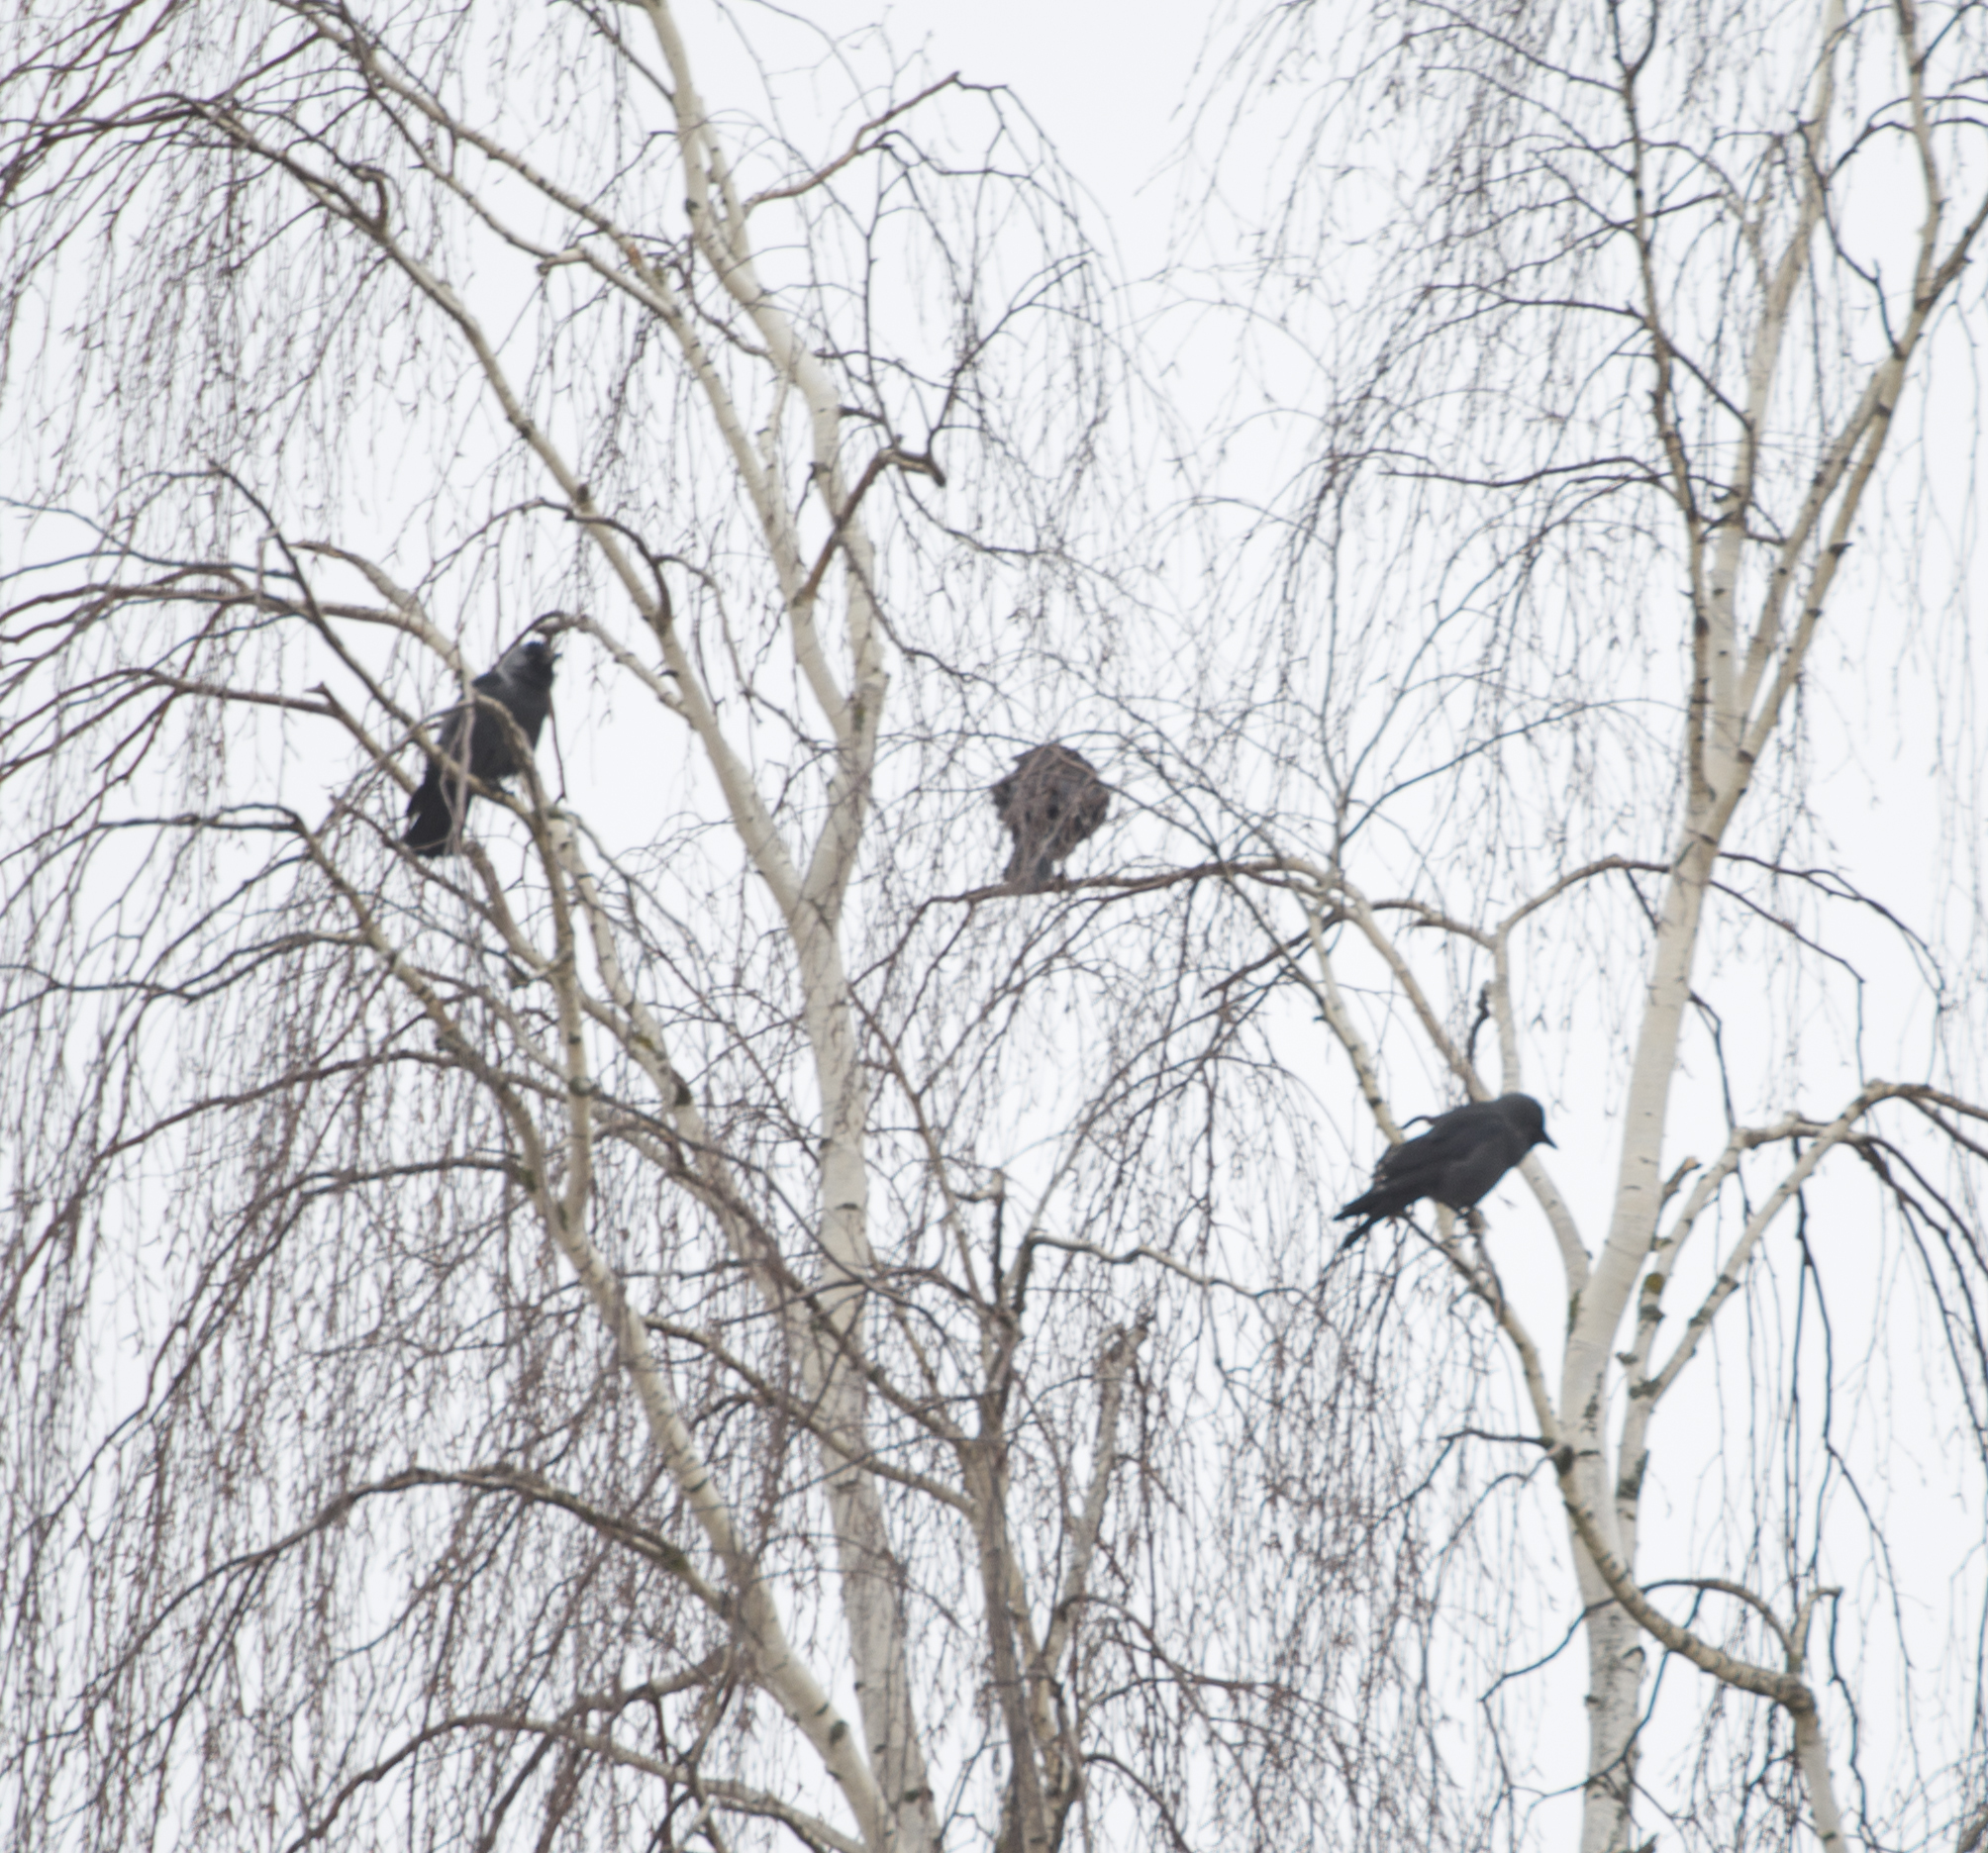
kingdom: Animalia
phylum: Chordata
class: Aves
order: Passeriformes
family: Corvidae
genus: Coloeus
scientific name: Coloeus monedula
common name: Western jackdaw
